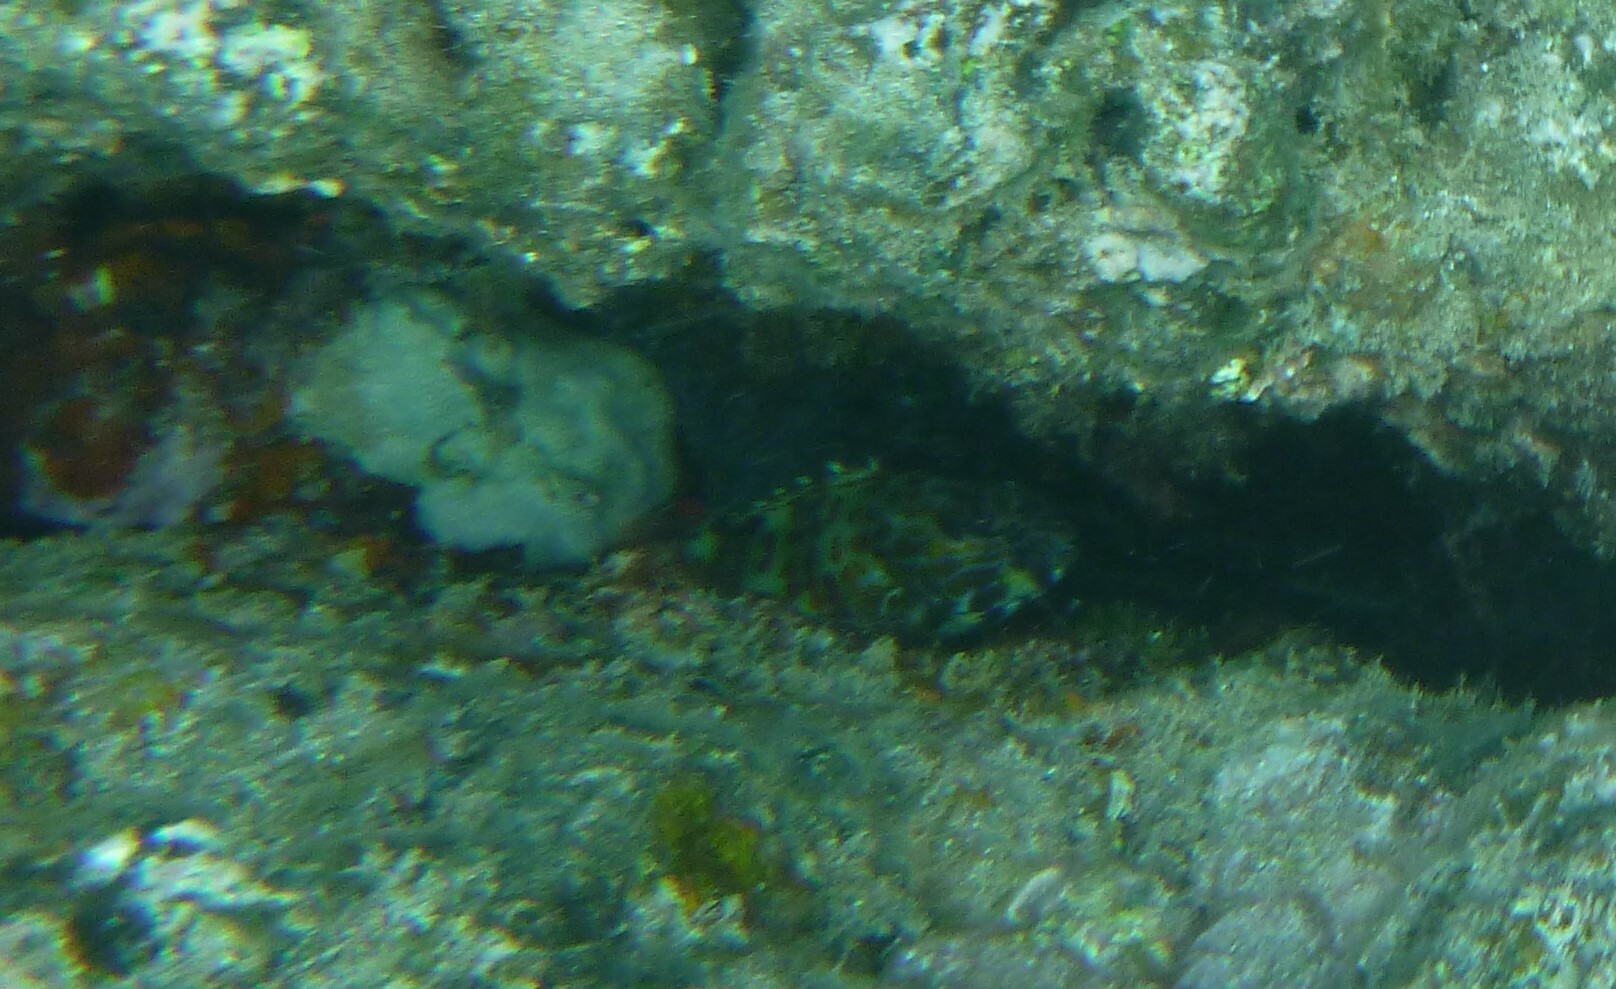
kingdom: Animalia
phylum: Chordata
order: Perciformes
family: Cirrhitidae
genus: Cirrhitus
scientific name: Cirrhitus pinnulatus
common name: Stocky hawkfish
